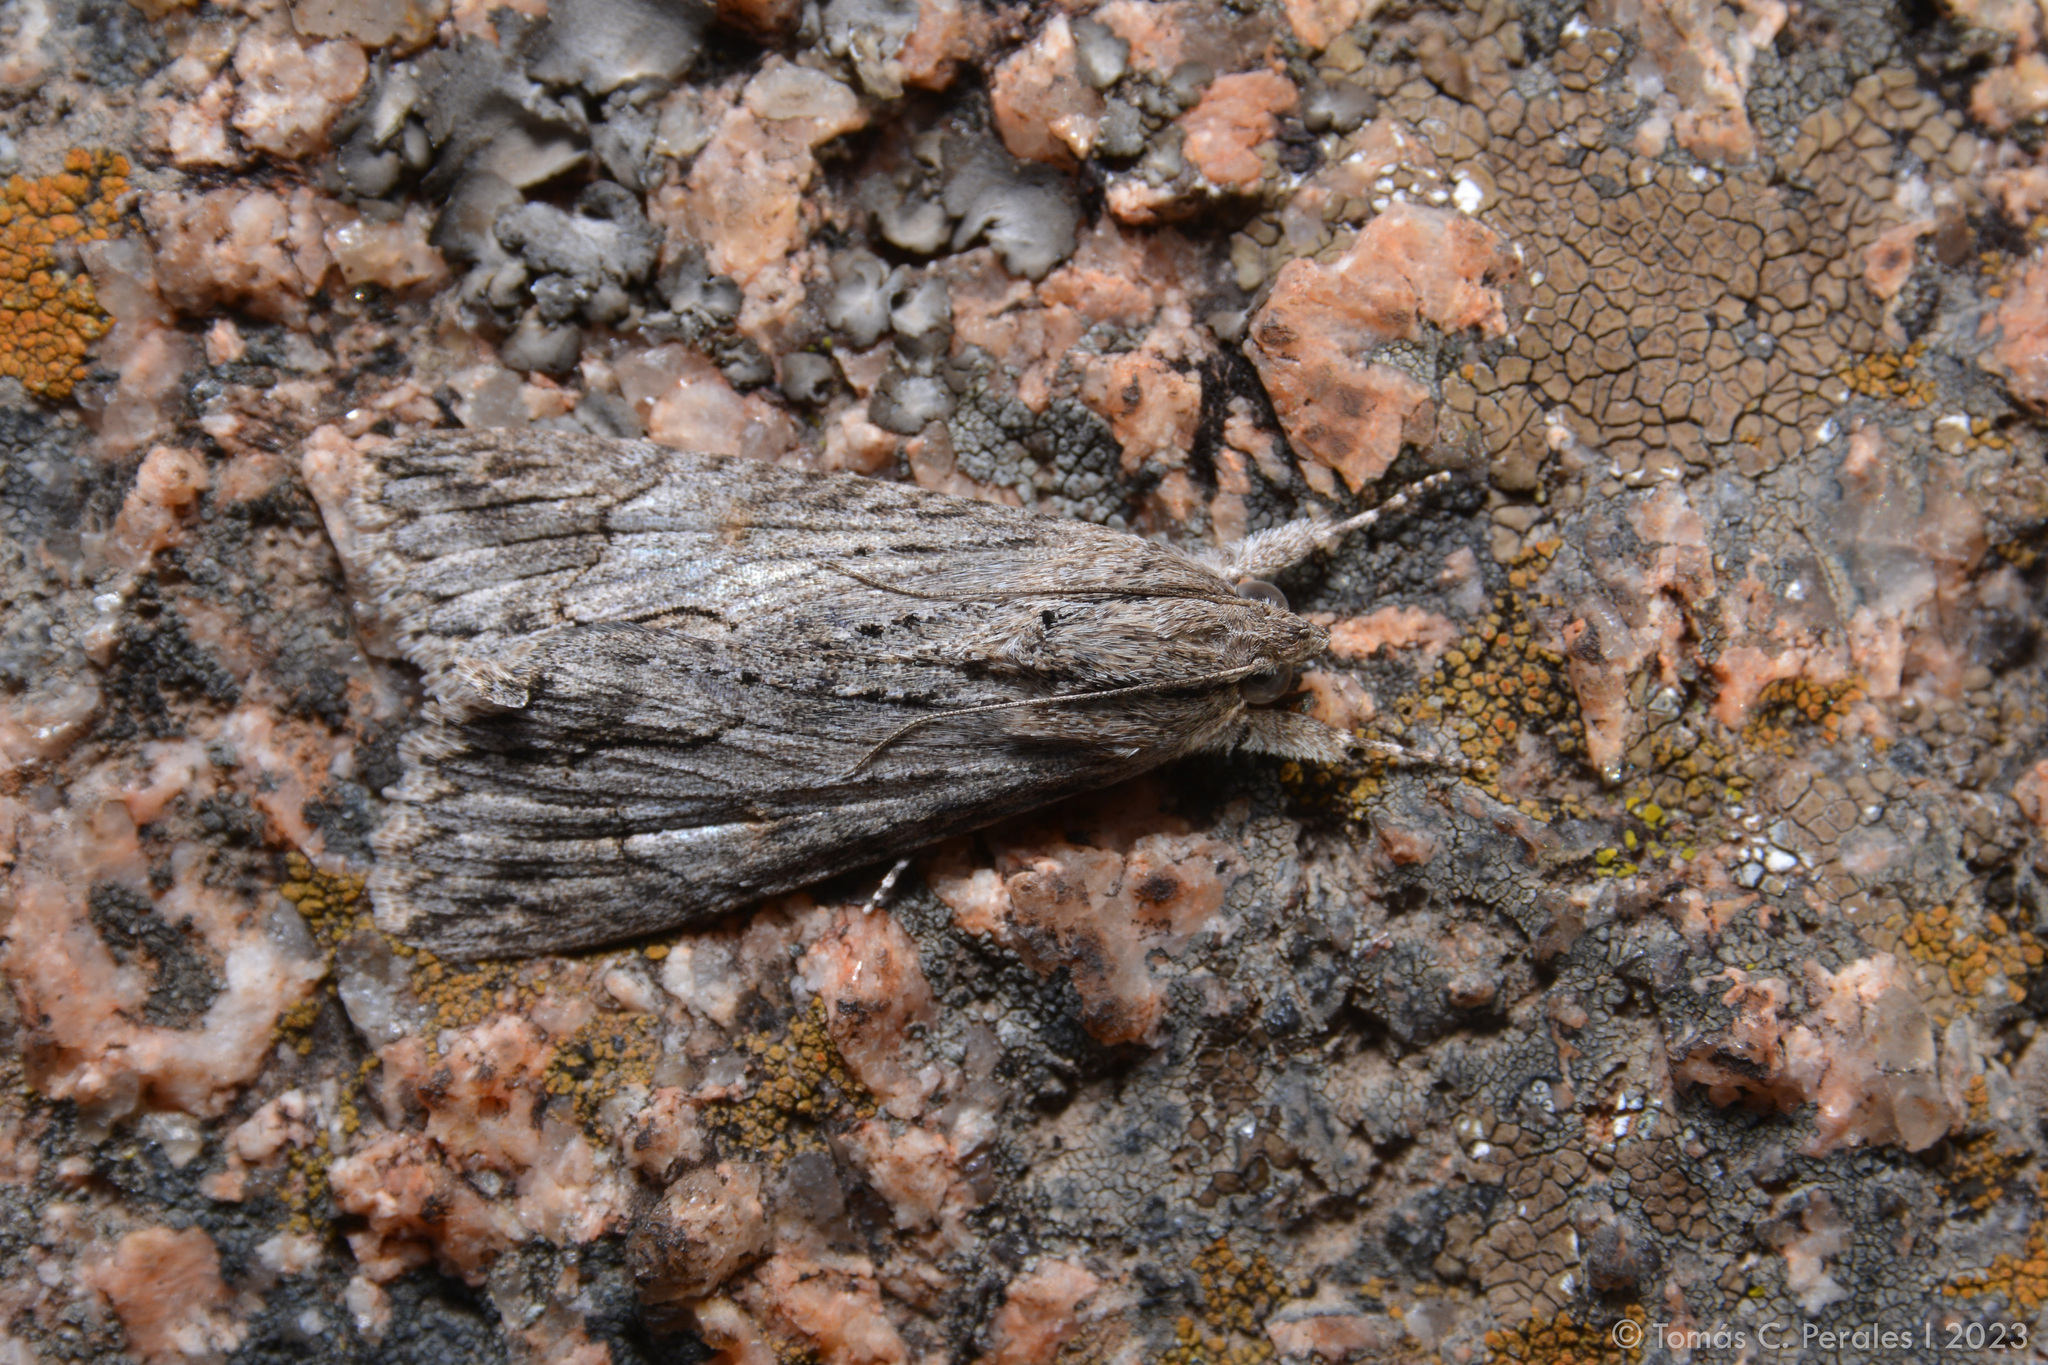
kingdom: Animalia
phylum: Arthropoda
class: Insecta
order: Lepidoptera
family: Erebidae
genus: Melipotis
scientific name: Melipotis acontioides
